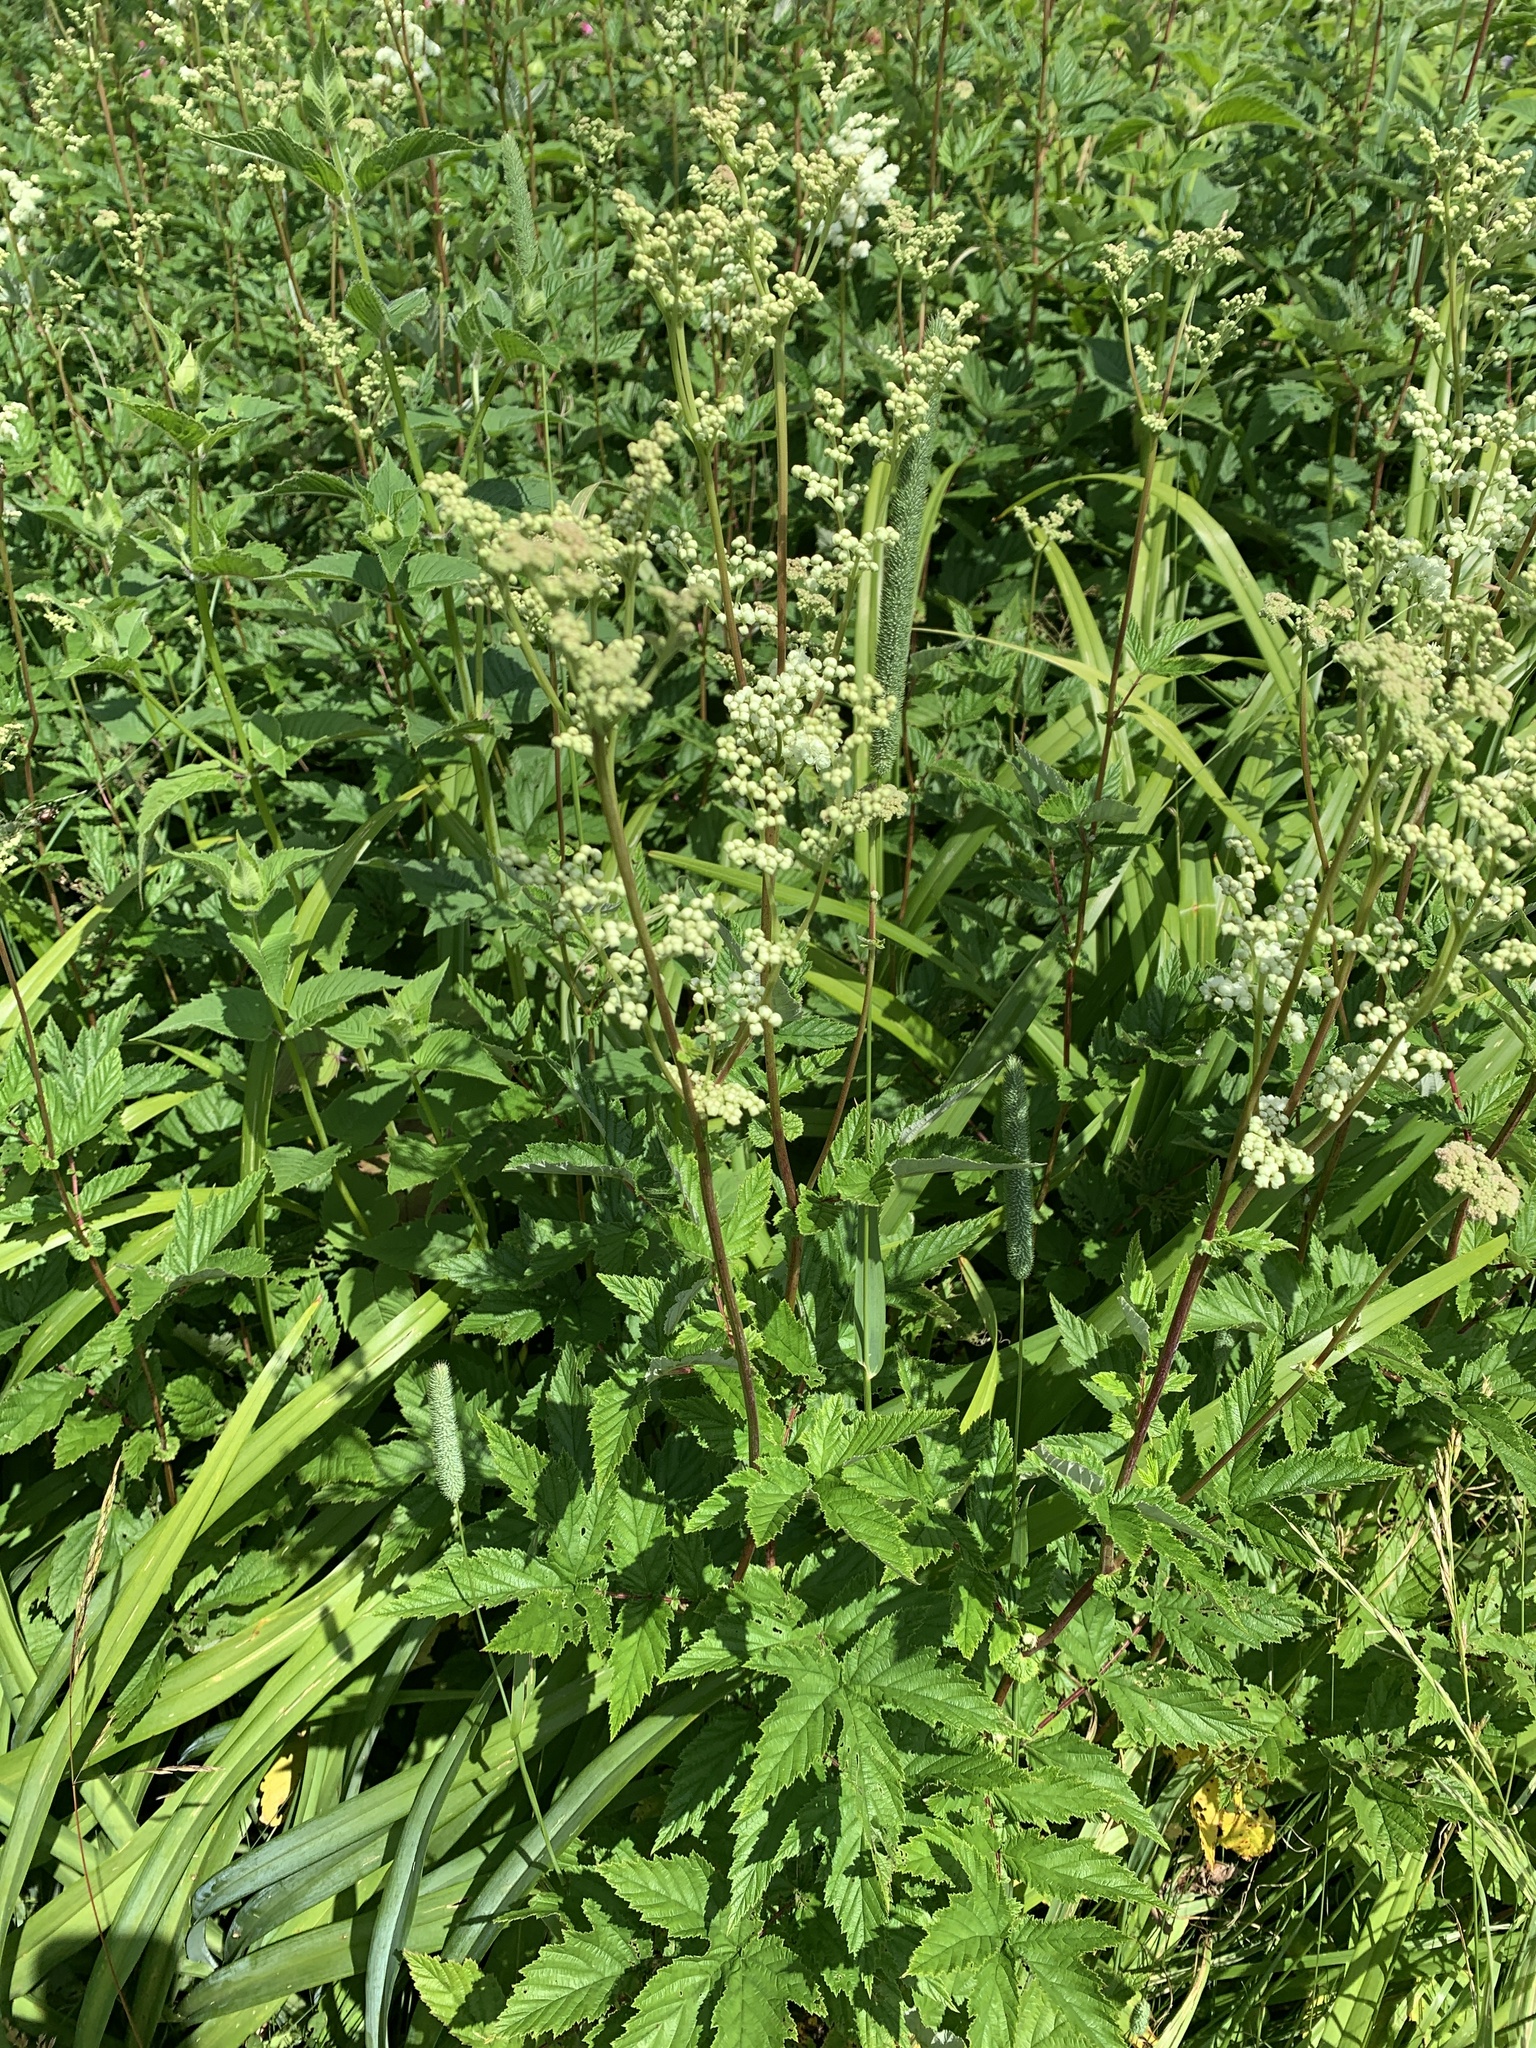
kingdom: Plantae
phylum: Tracheophyta
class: Magnoliopsida
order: Rosales
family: Rosaceae
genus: Filipendula
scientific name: Filipendula ulmaria
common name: Meadowsweet
